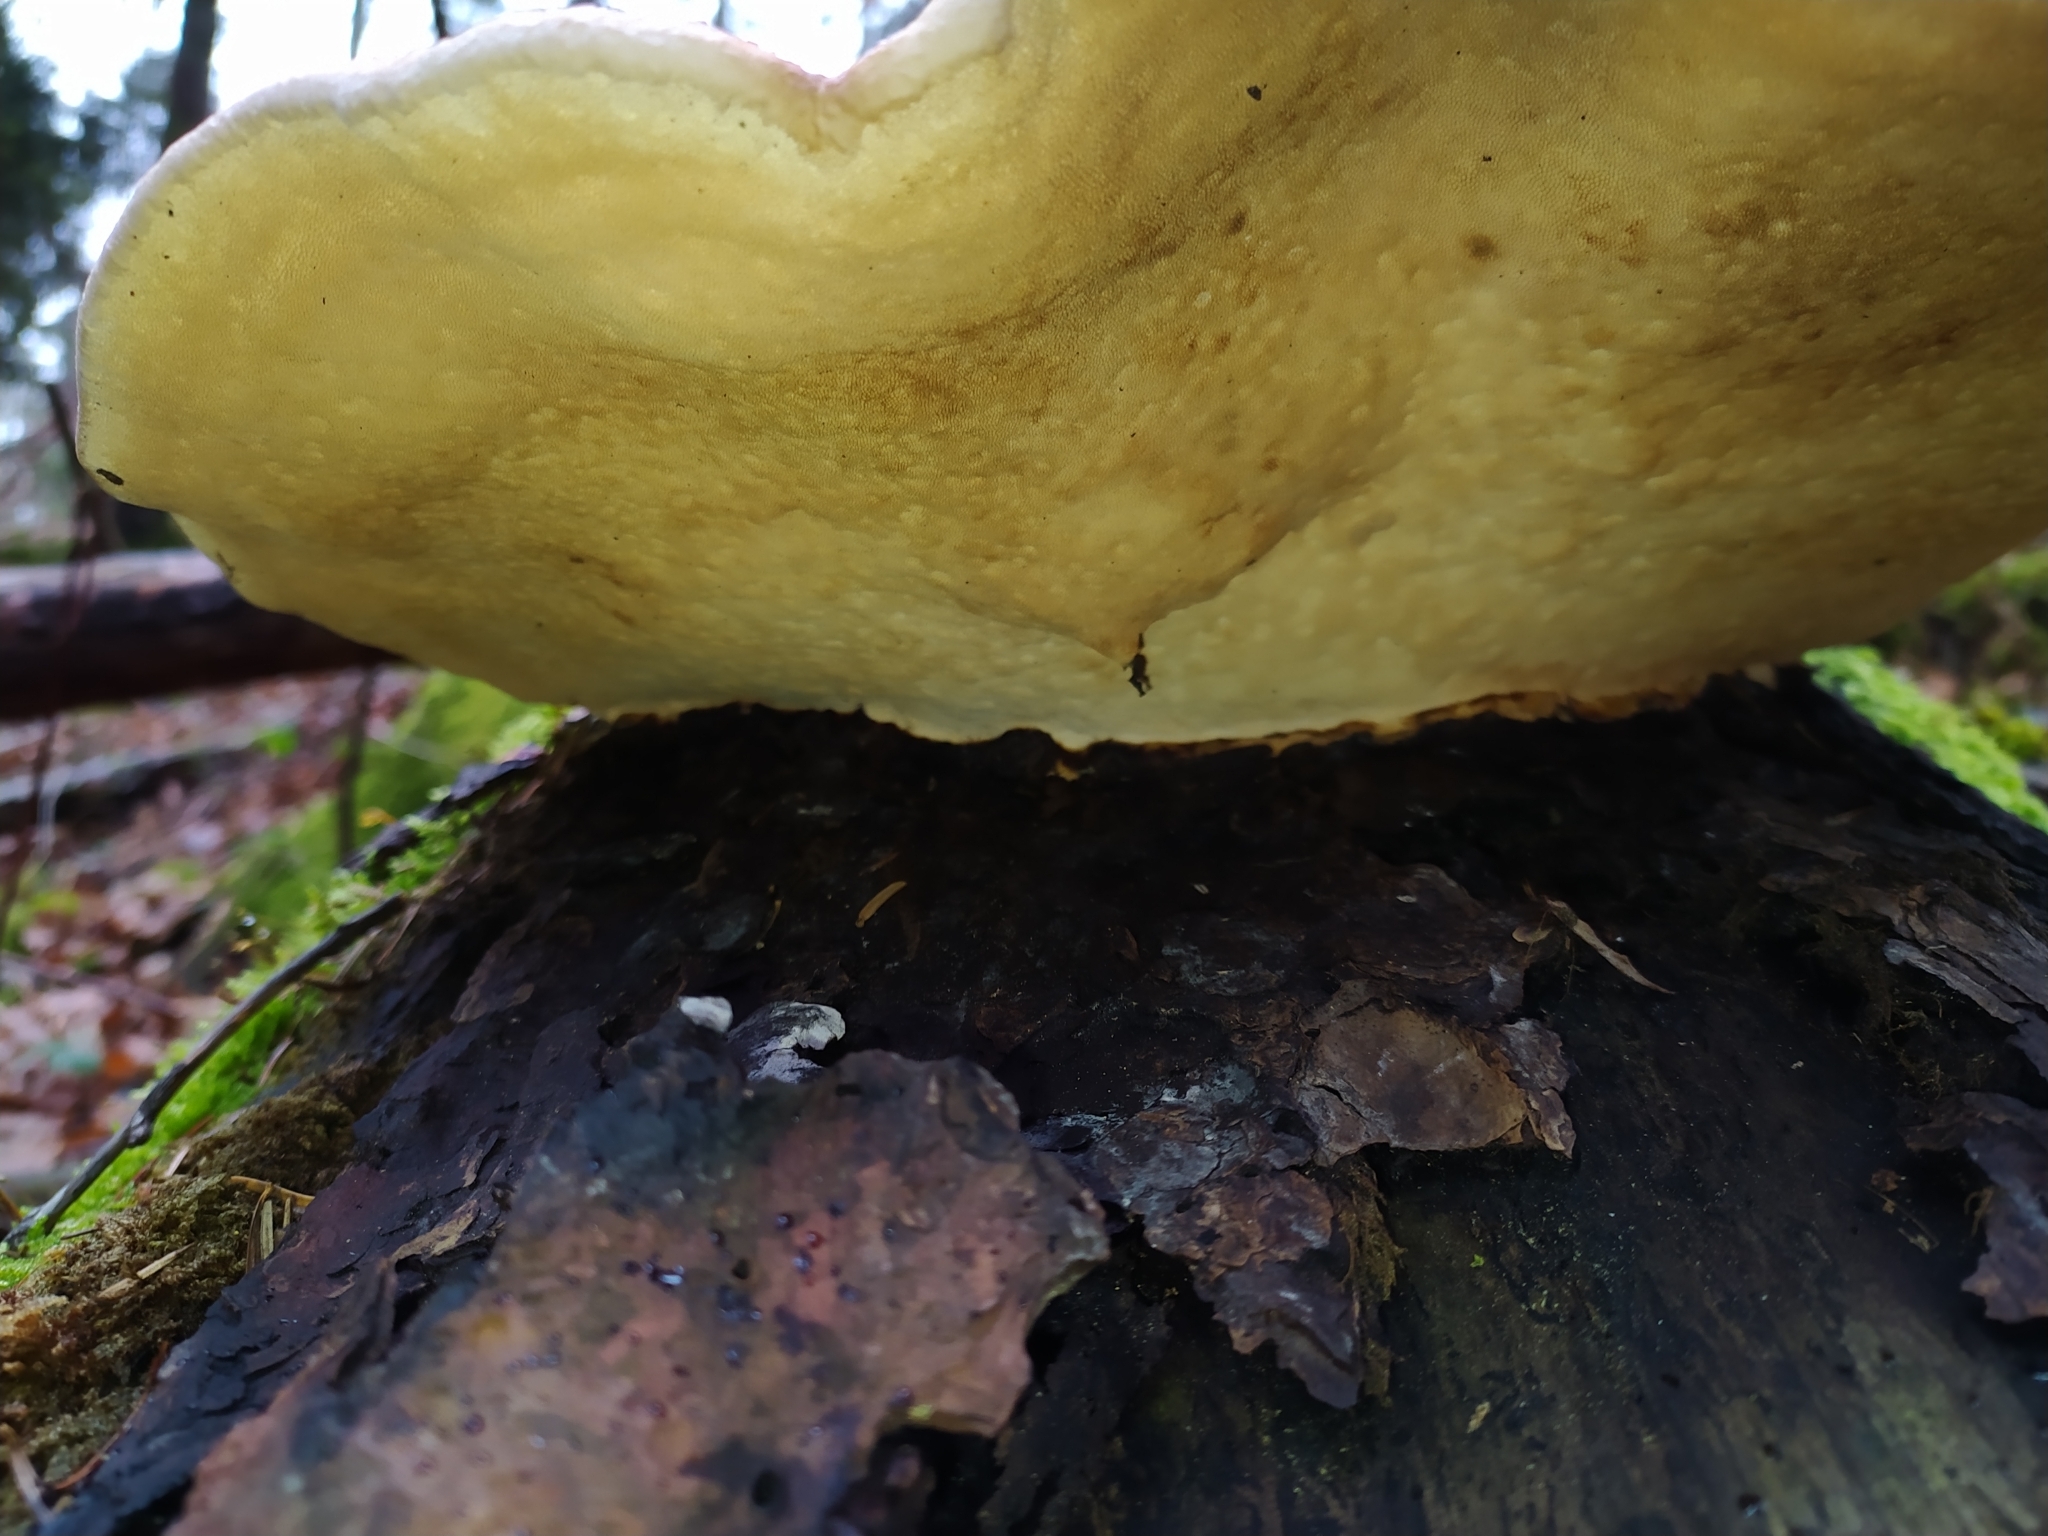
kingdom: Fungi
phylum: Basidiomycota
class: Agaricomycetes
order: Polyporales
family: Fomitopsidaceae
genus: Fomitopsis
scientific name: Fomitopsis pinicola
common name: Red-belted bracket
